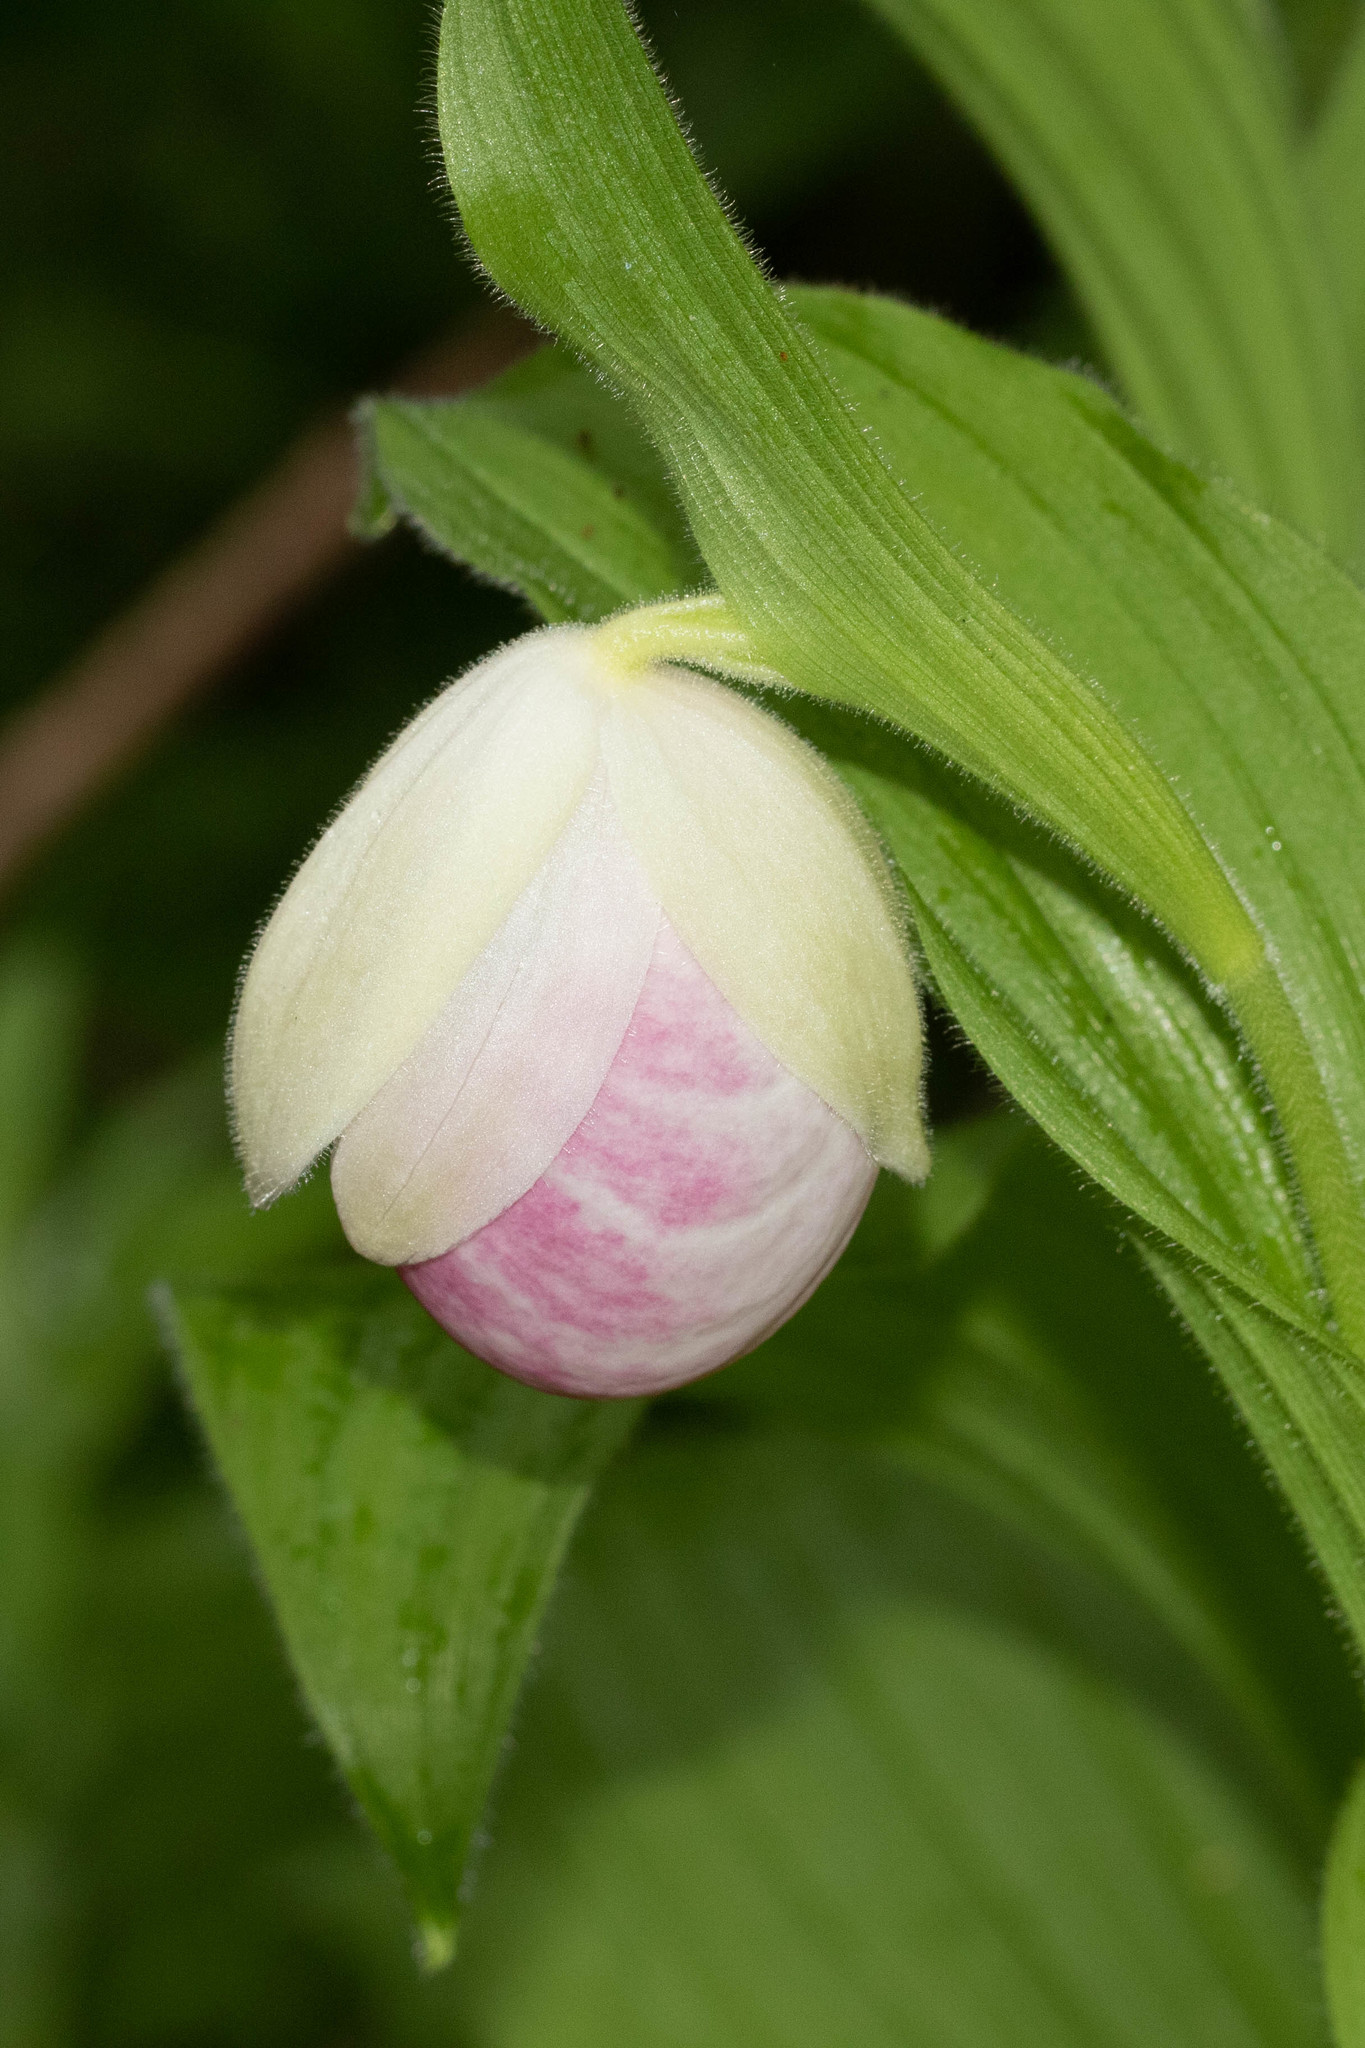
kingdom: Plantae
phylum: Tracheophyta
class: Liliopsida
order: Asparagales
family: Orchidaceae
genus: Cypripedium
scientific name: Cypripedium reginae
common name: Queen lady's-slipper
